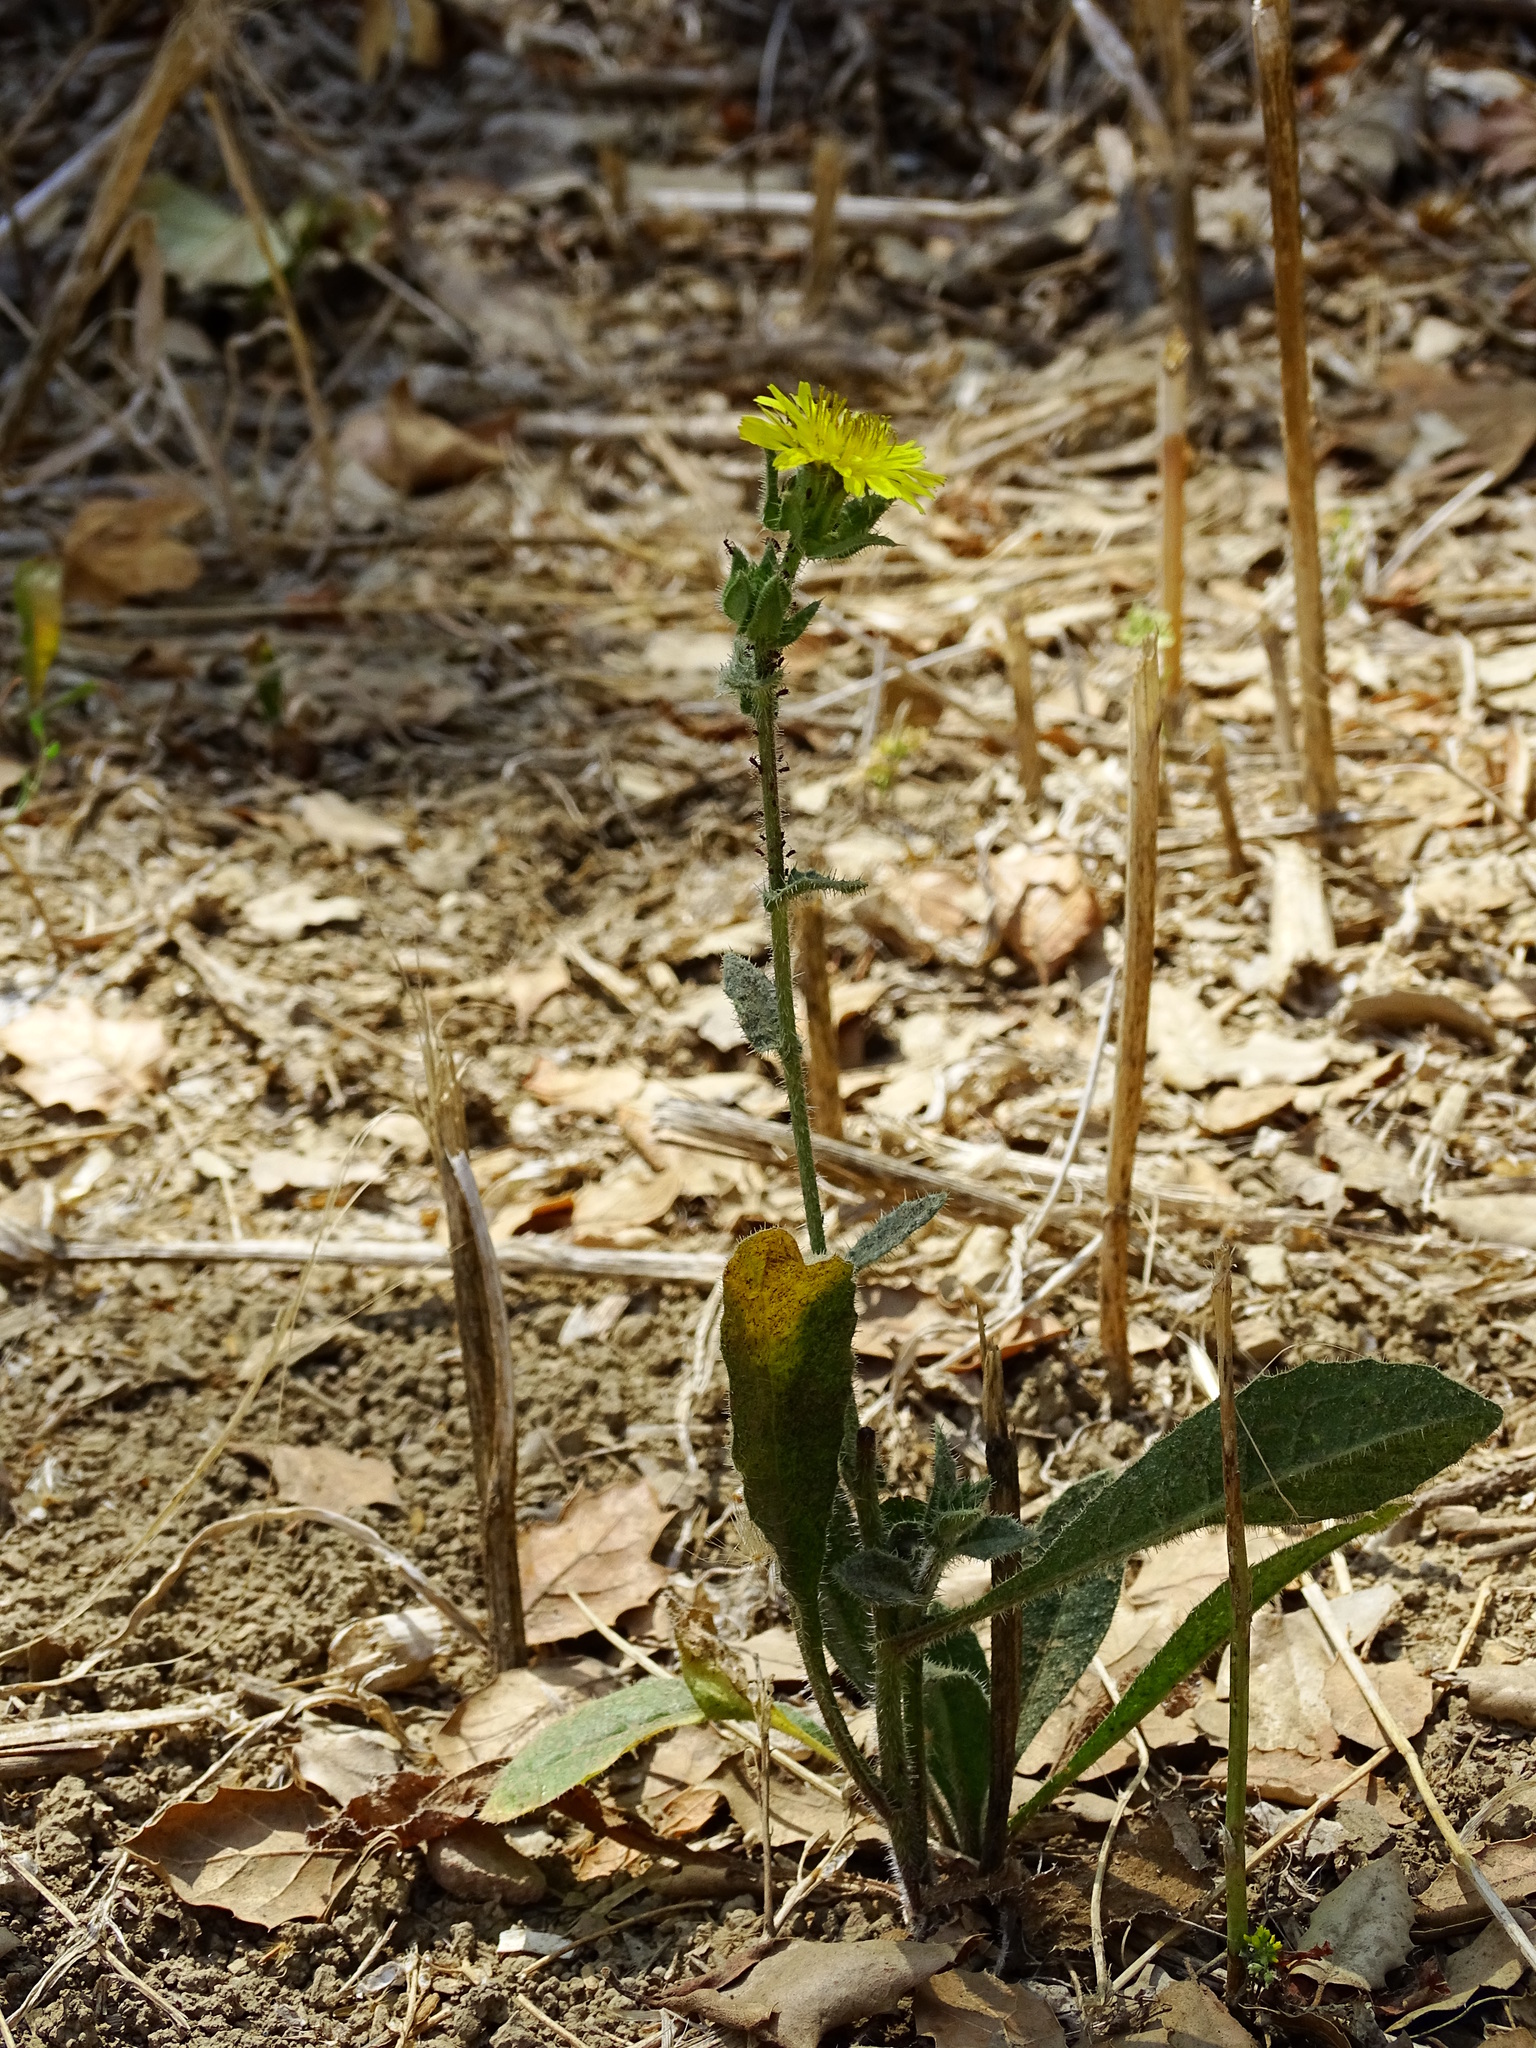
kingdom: Plantae
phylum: Tracheophyta
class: Magnoliopsida
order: Asterales
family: Asteraceae
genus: Helminthotheca
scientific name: Helminthotheca echioides
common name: Ox-tongue
